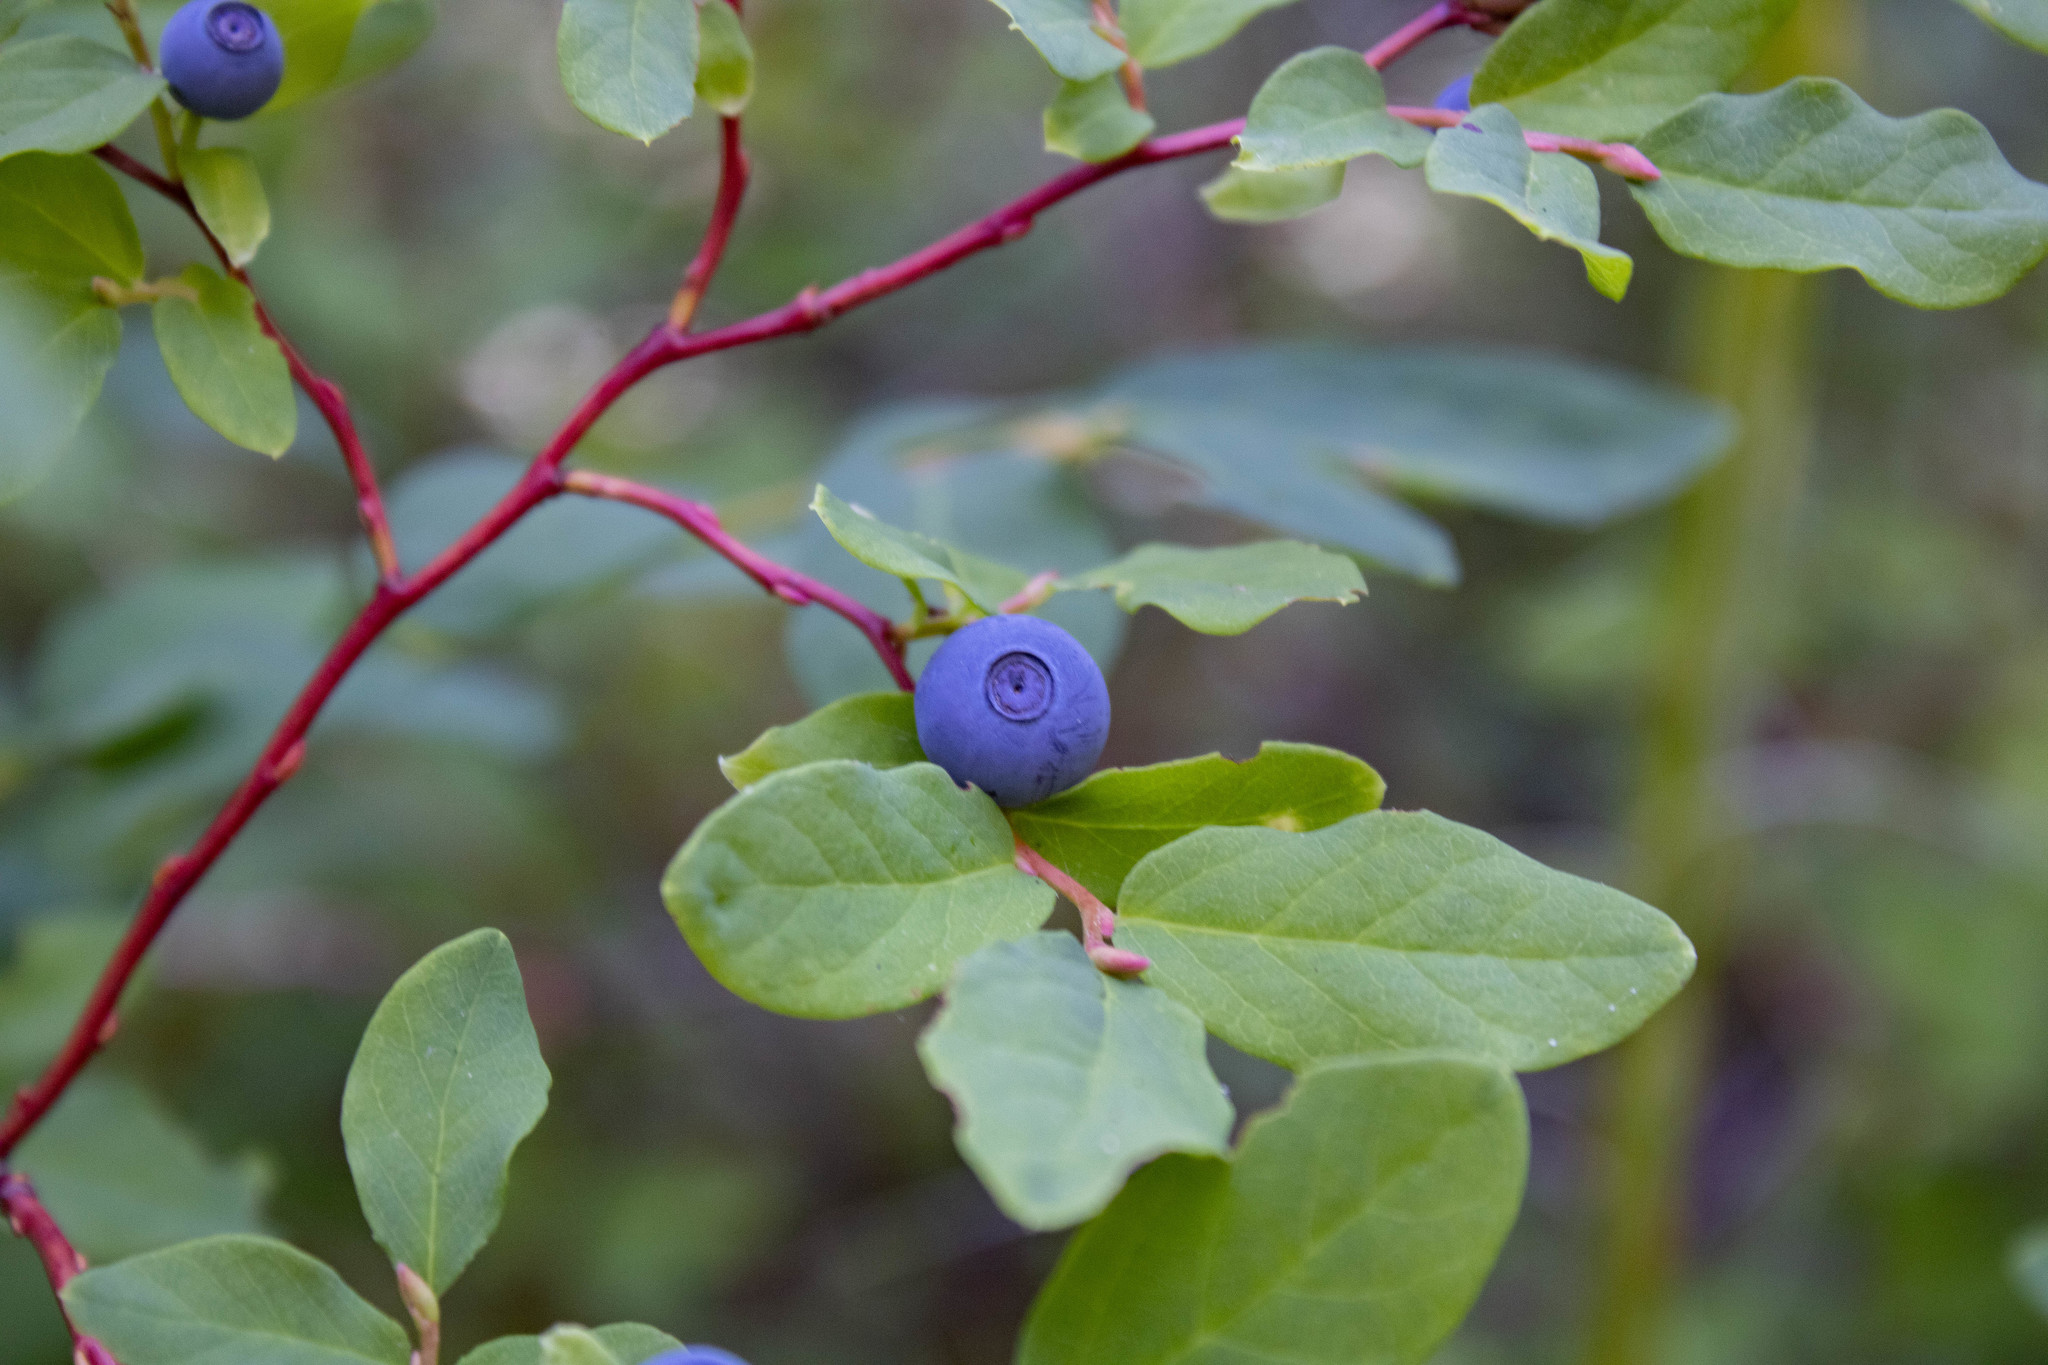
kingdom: Plantae
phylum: Tracheophyta
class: Magnoliopsida
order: Ericales
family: Ericaceae
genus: Vaccinium
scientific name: Vaccinium ovalifolium
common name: Early blueberry
